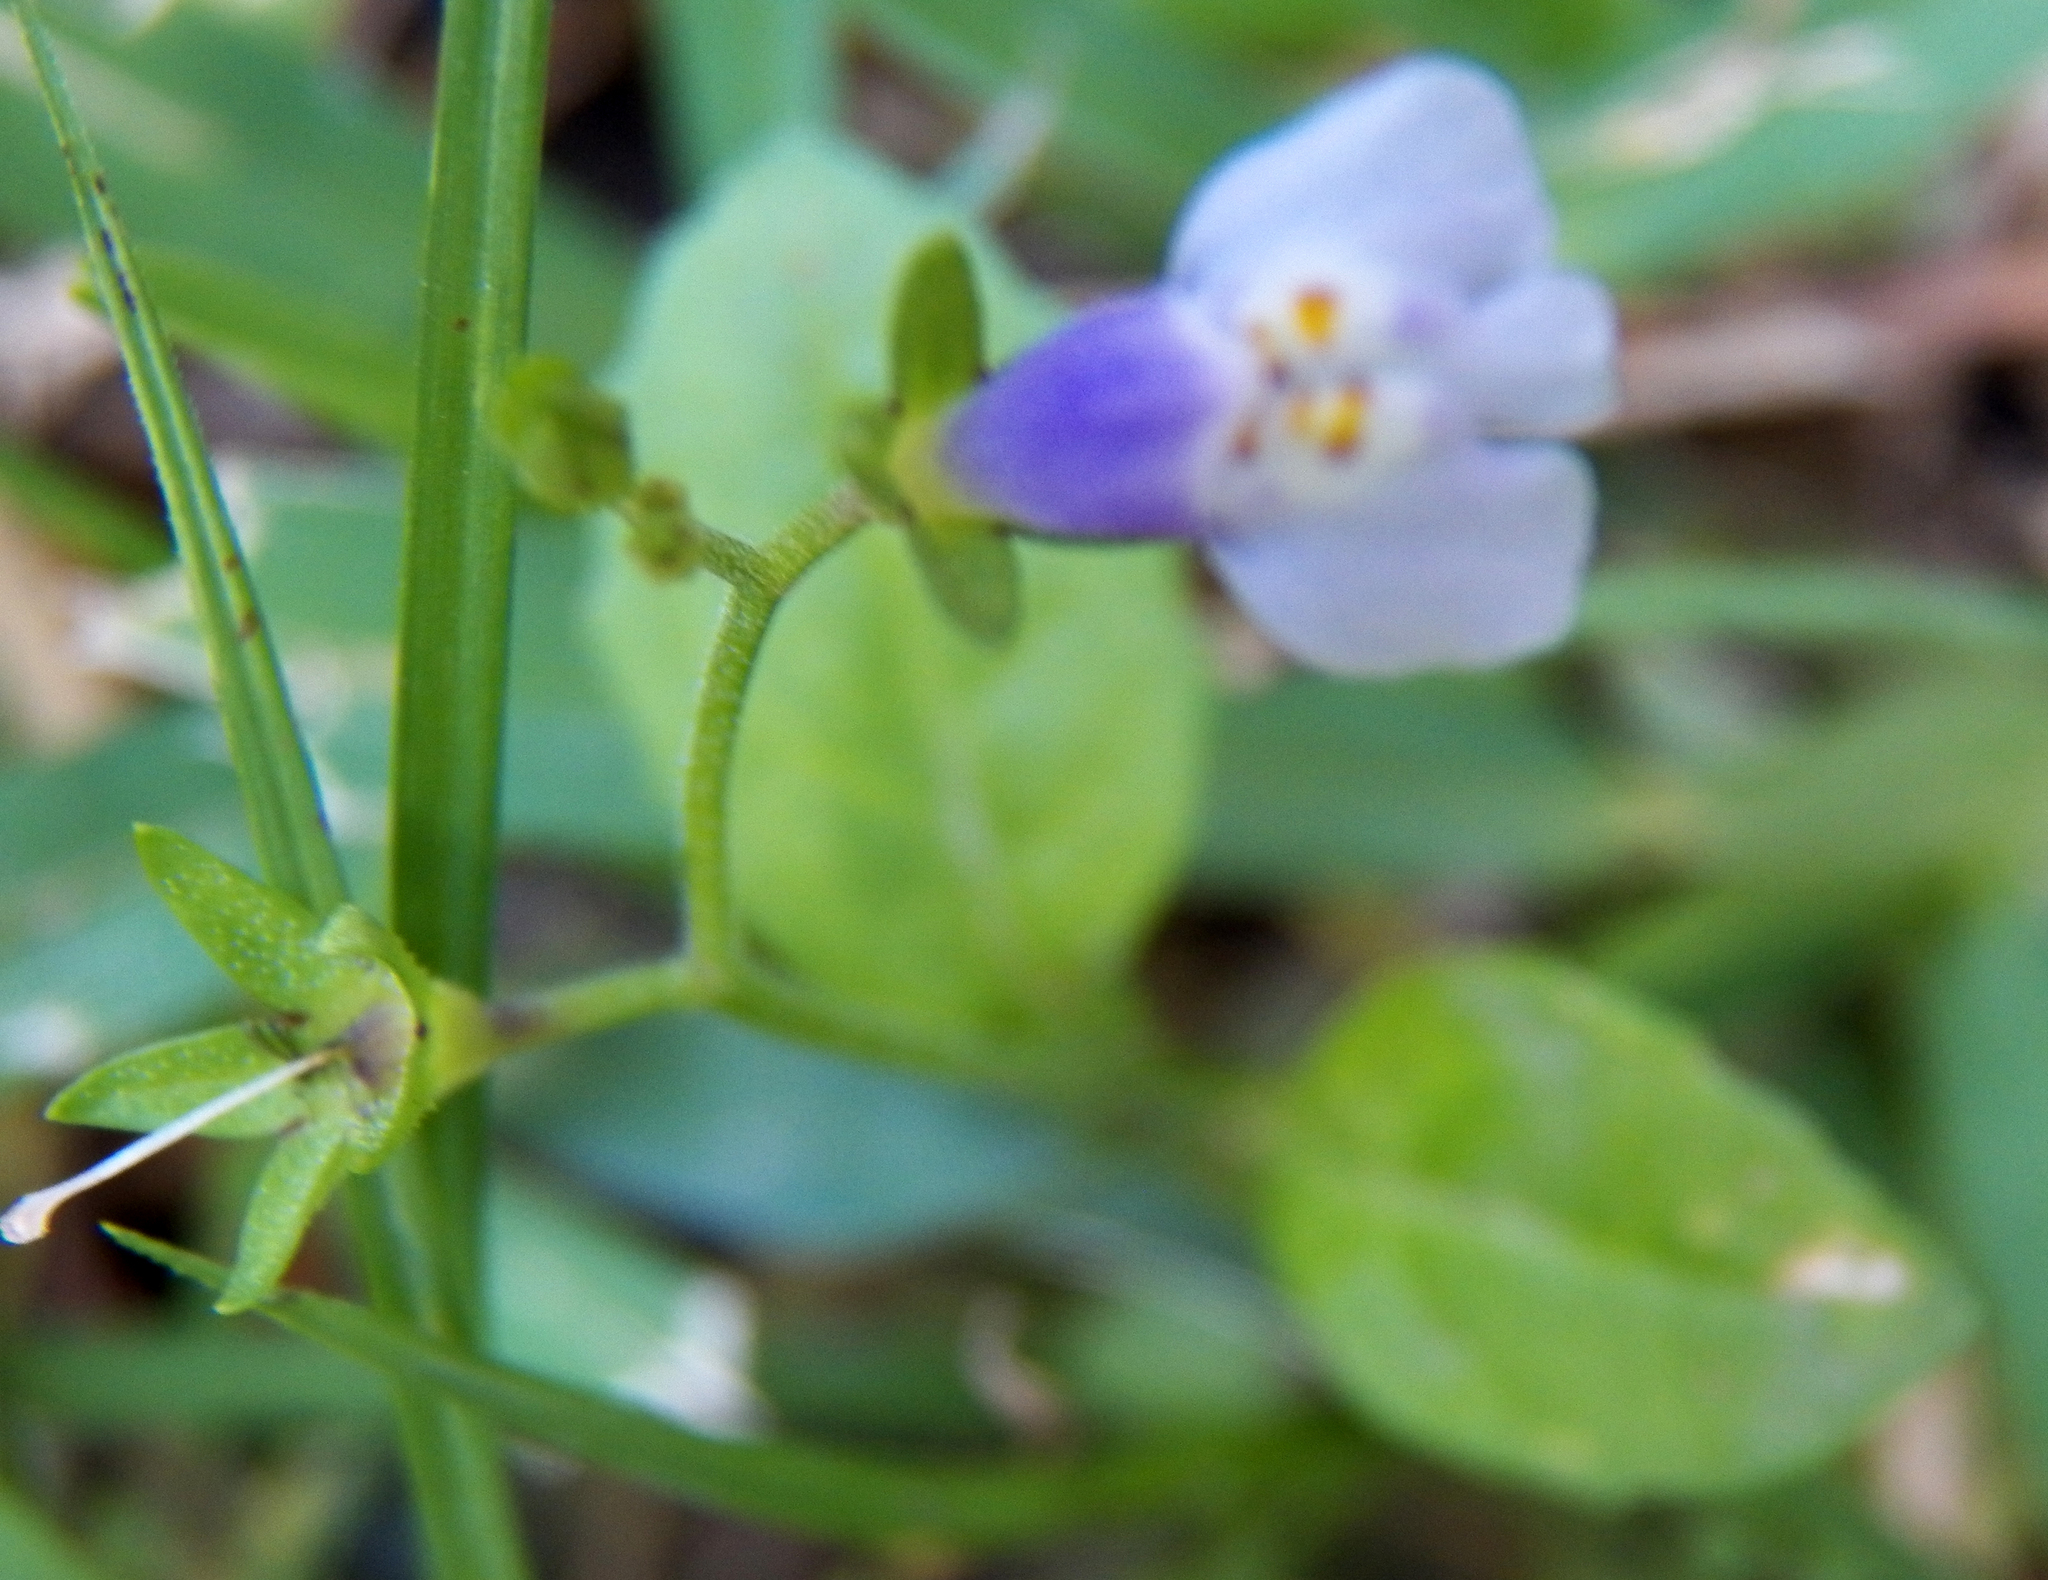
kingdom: Plantae
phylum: Tracheophyta
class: Magnoliopsida
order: Lamiales
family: Mazaceae
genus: Mazus
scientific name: Mazus pumilus
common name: Japanese mazus
